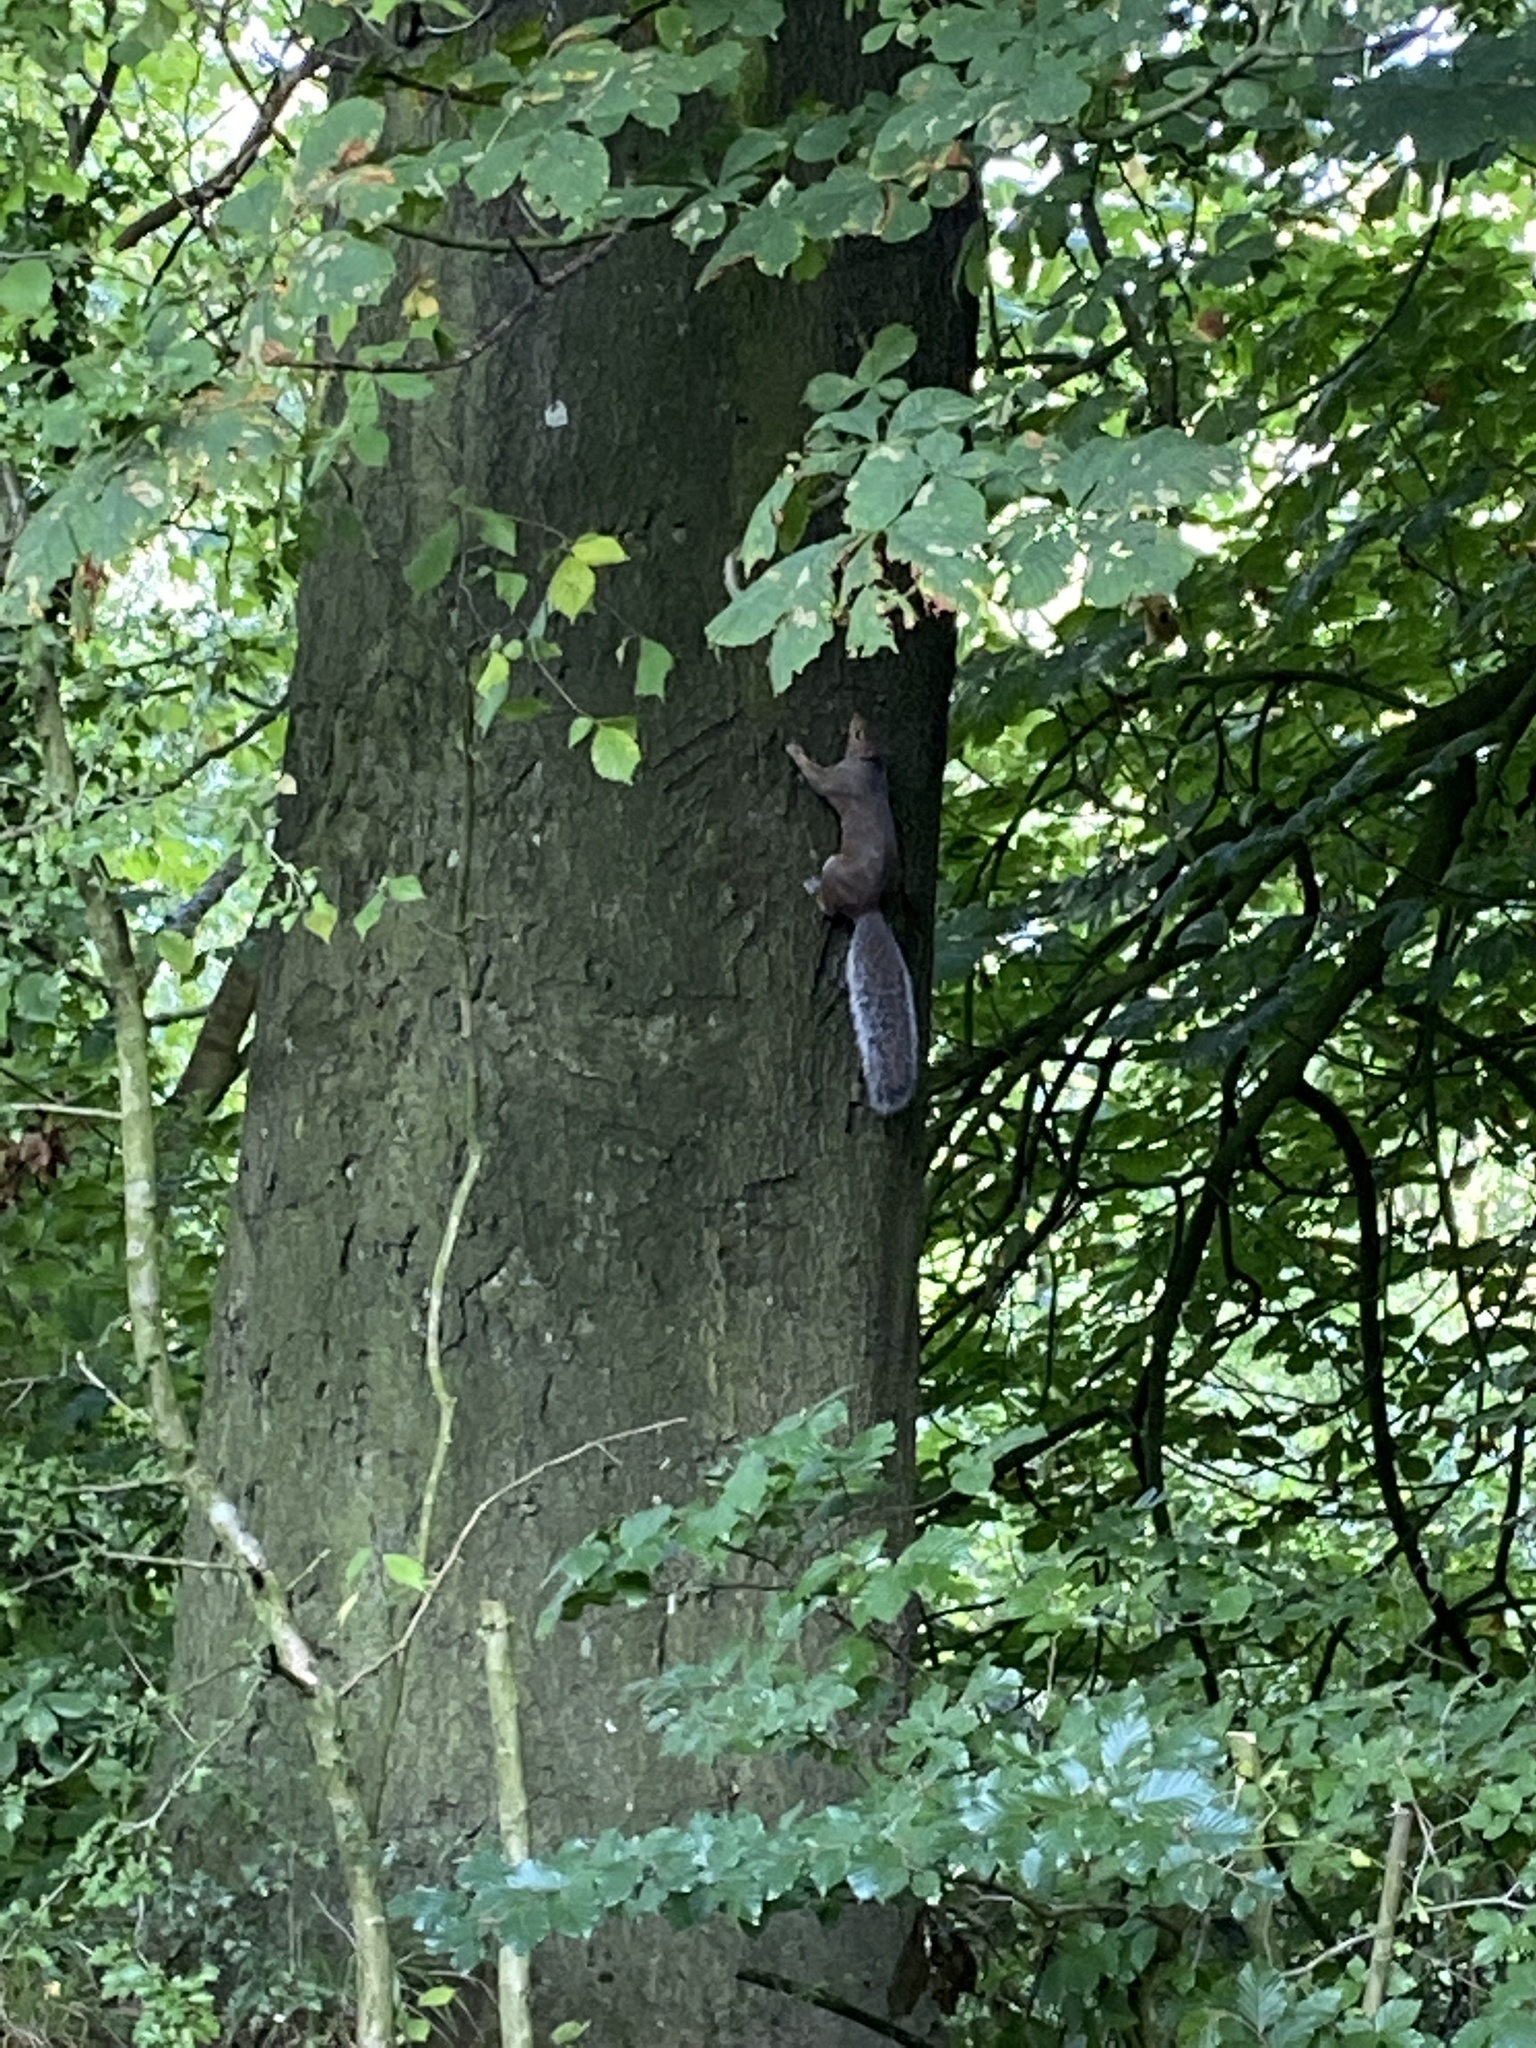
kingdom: Animalia
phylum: Chordata
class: Mammalia
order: Rodentia
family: Sciuridae
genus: Sciurus
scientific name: Sciurus carolinensis
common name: Eastern gray squirrel
